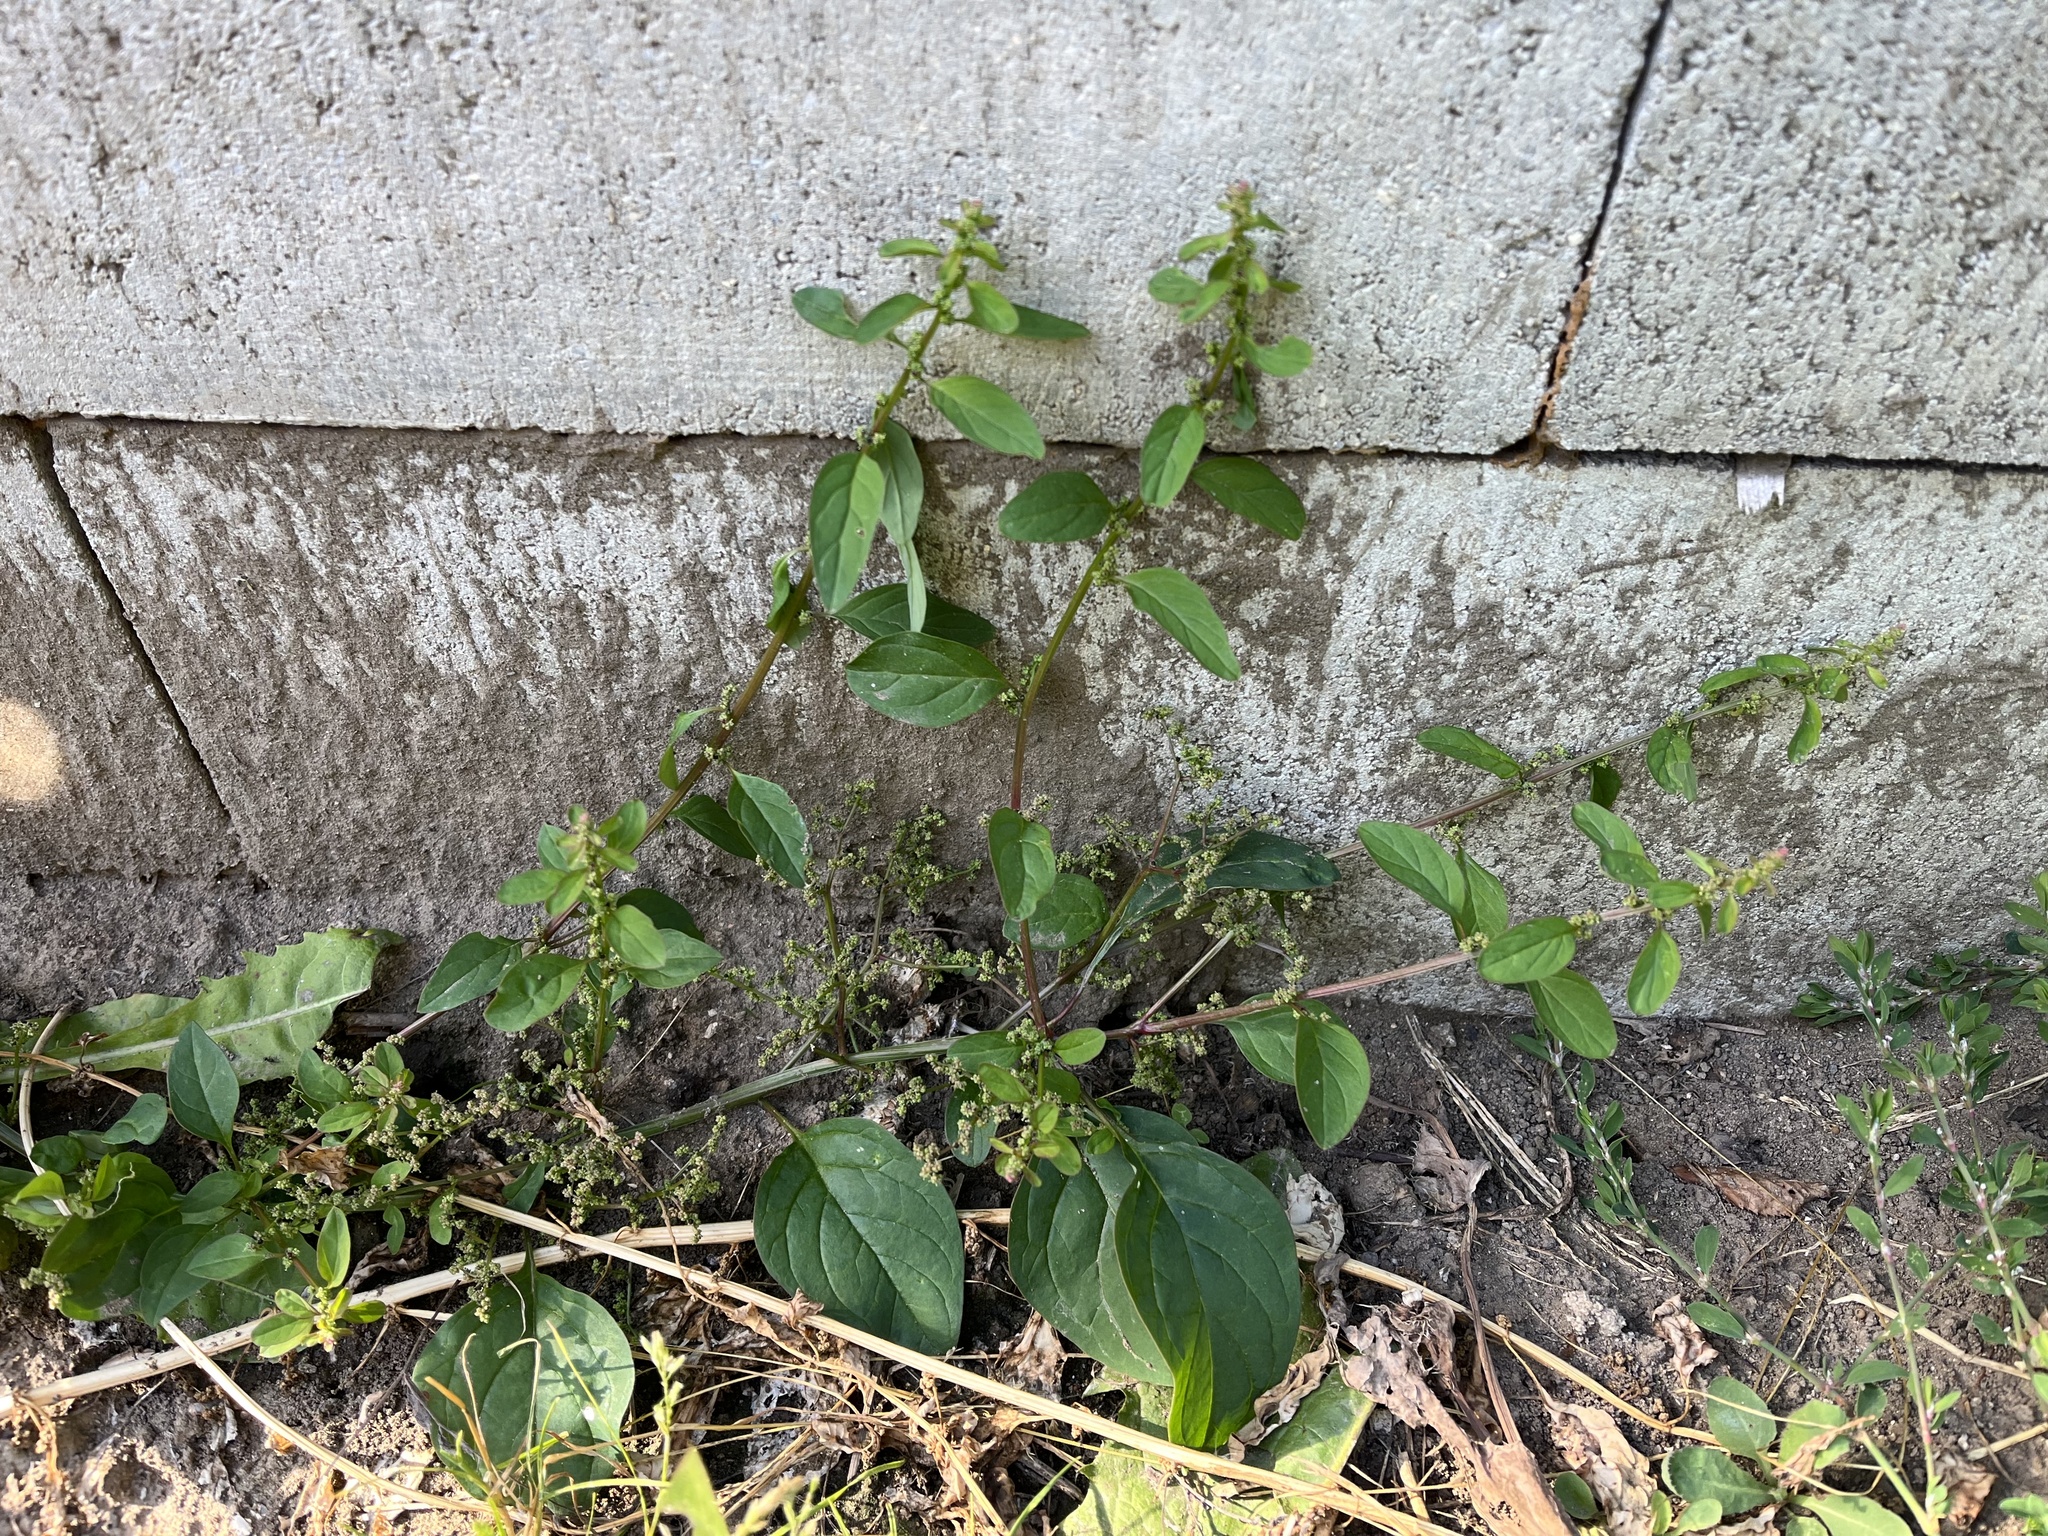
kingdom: Plantae
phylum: Tracheophyta
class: Magnoliopsida
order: Caryophyllales
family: Amaranthaceae
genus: Lipandra
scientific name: Lipandra polysperma
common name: Many-seed goosefoot
